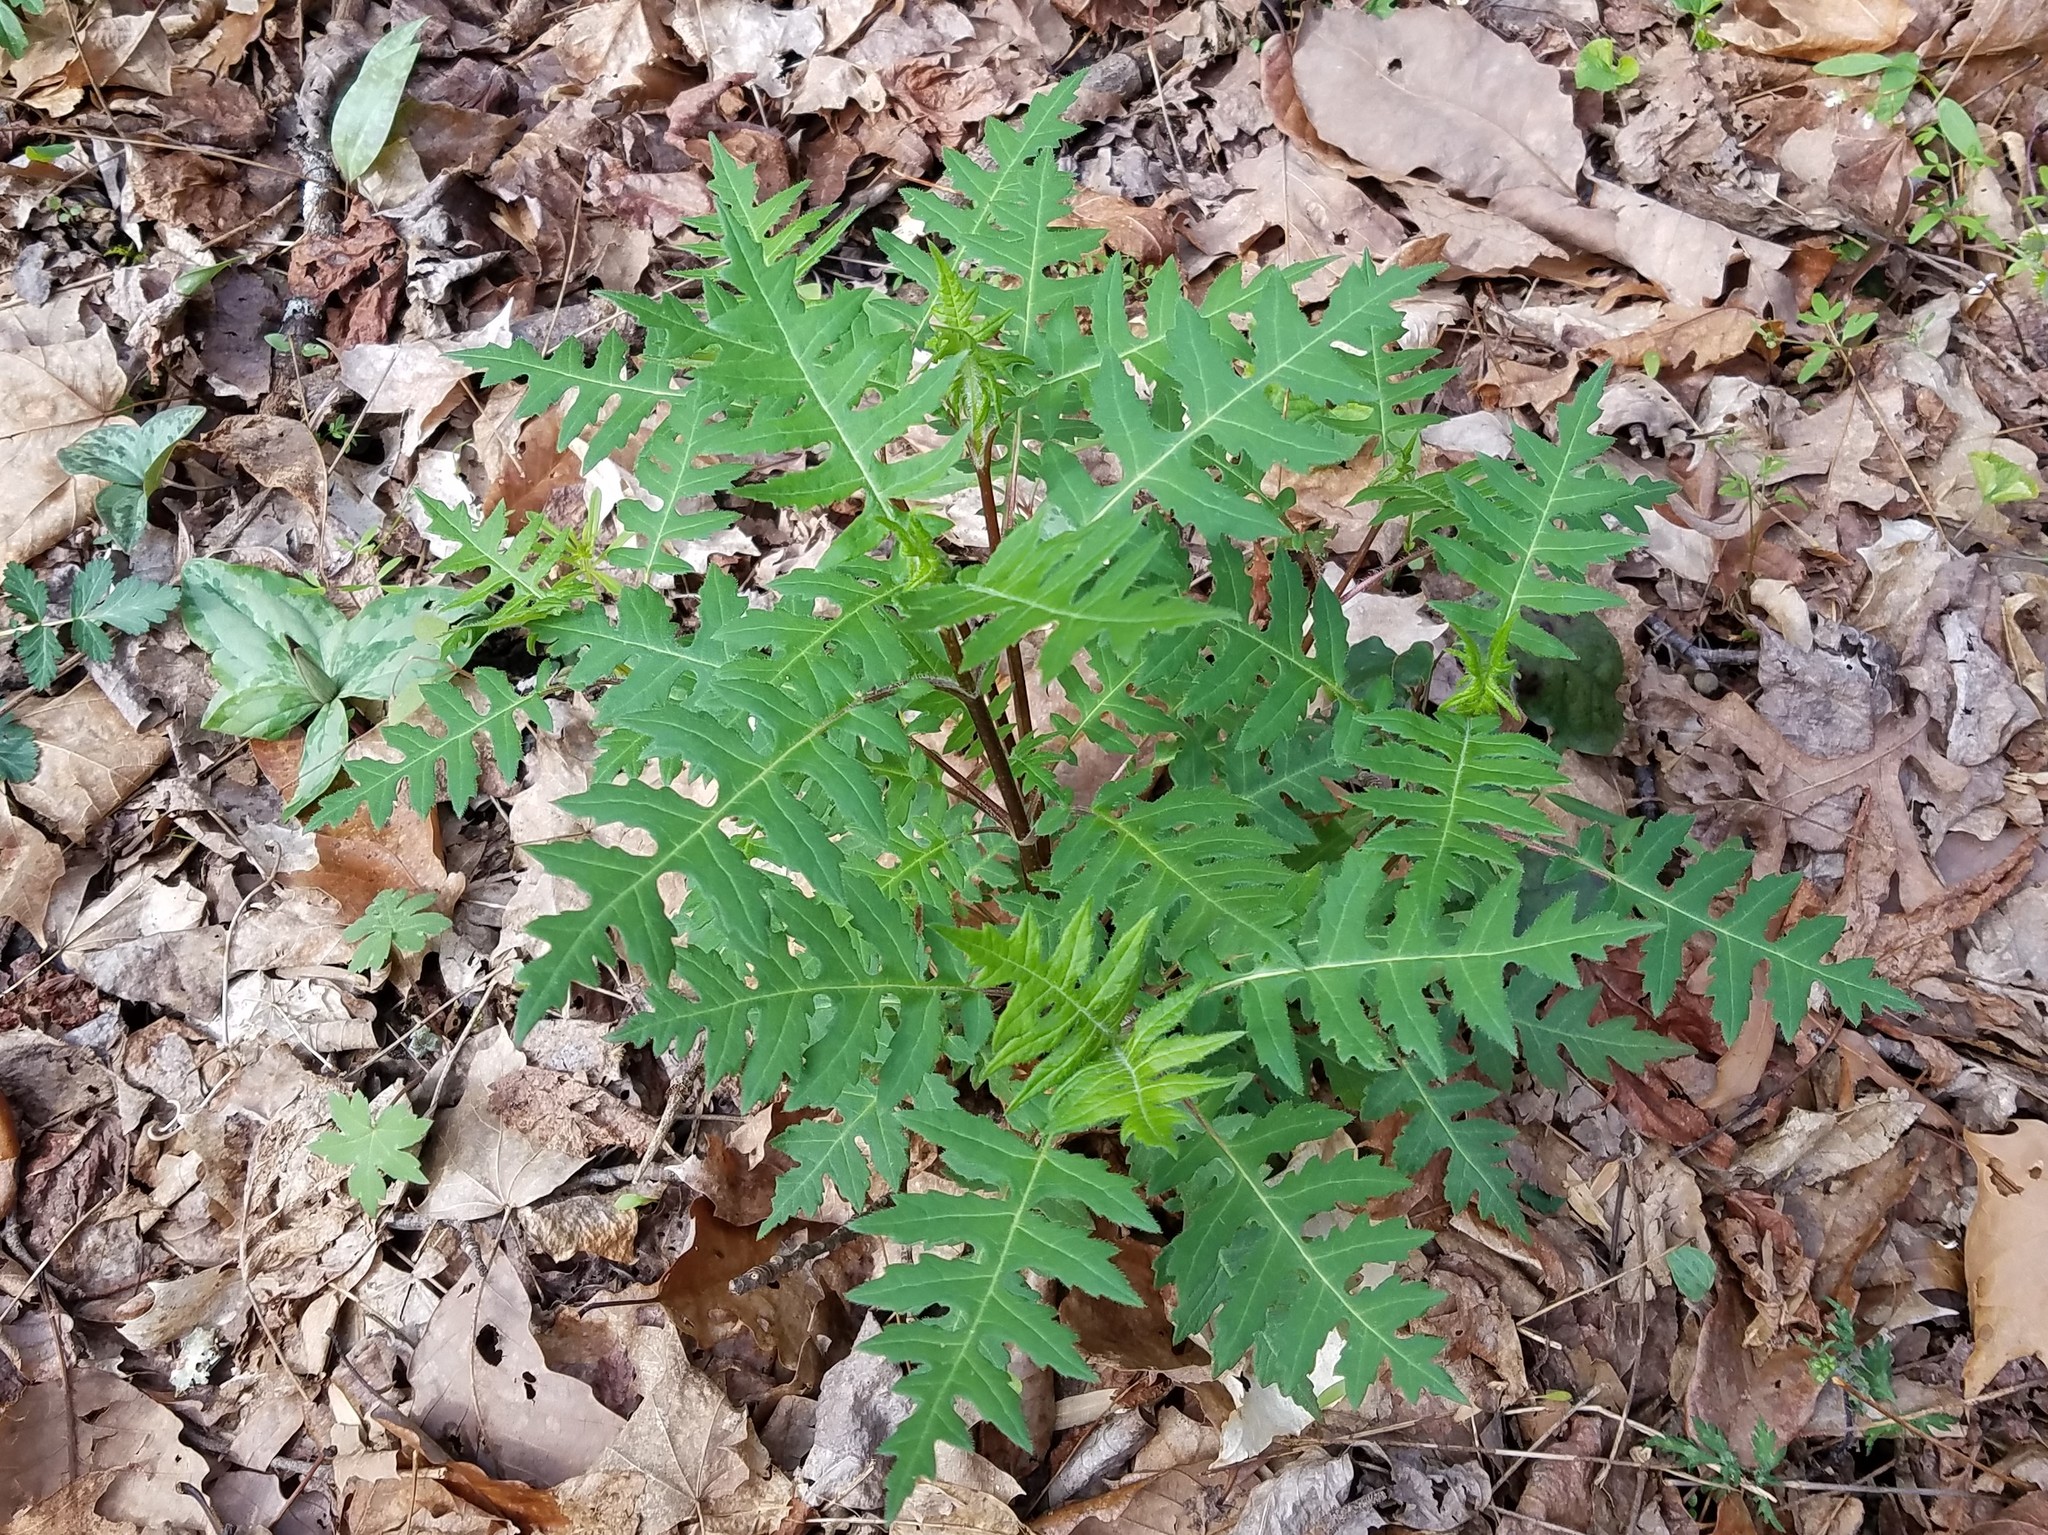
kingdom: Plantae
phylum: Tracheophyta
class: Magnoliopsida
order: Asterales
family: Asteraceae
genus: Polymnia
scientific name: Polymnia laevigata
